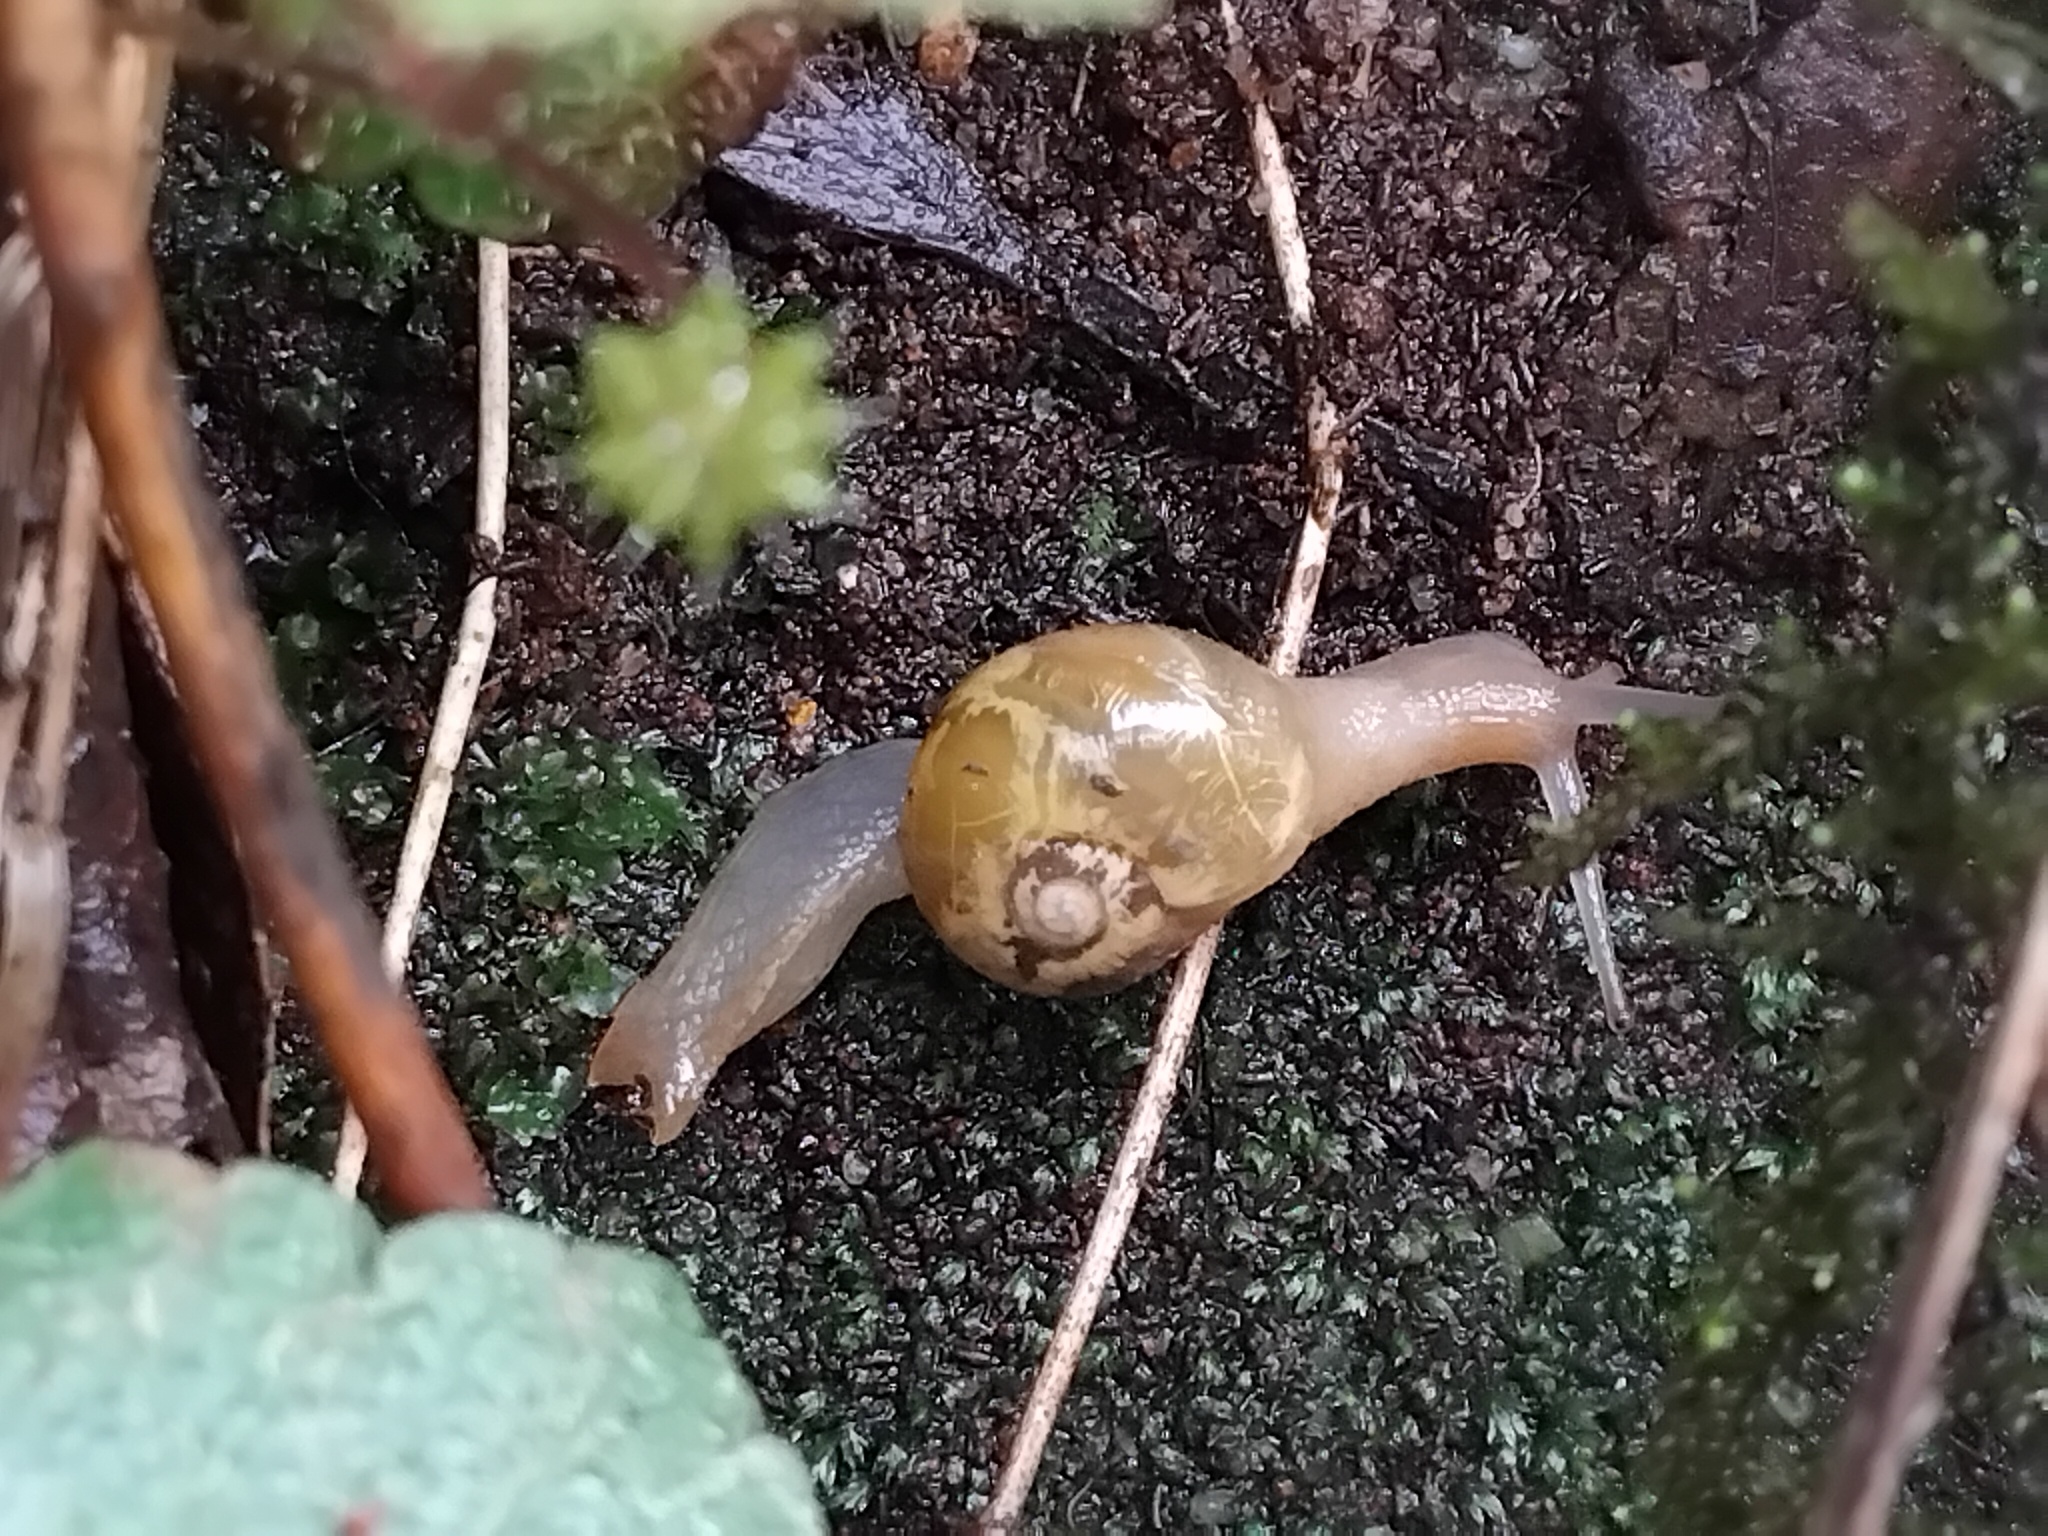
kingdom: Animalia
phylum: Mollusca
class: Gastropoda
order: Stylommatophora
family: Helicarionidae
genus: Mysticarion
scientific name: Mysticarion porrectus
